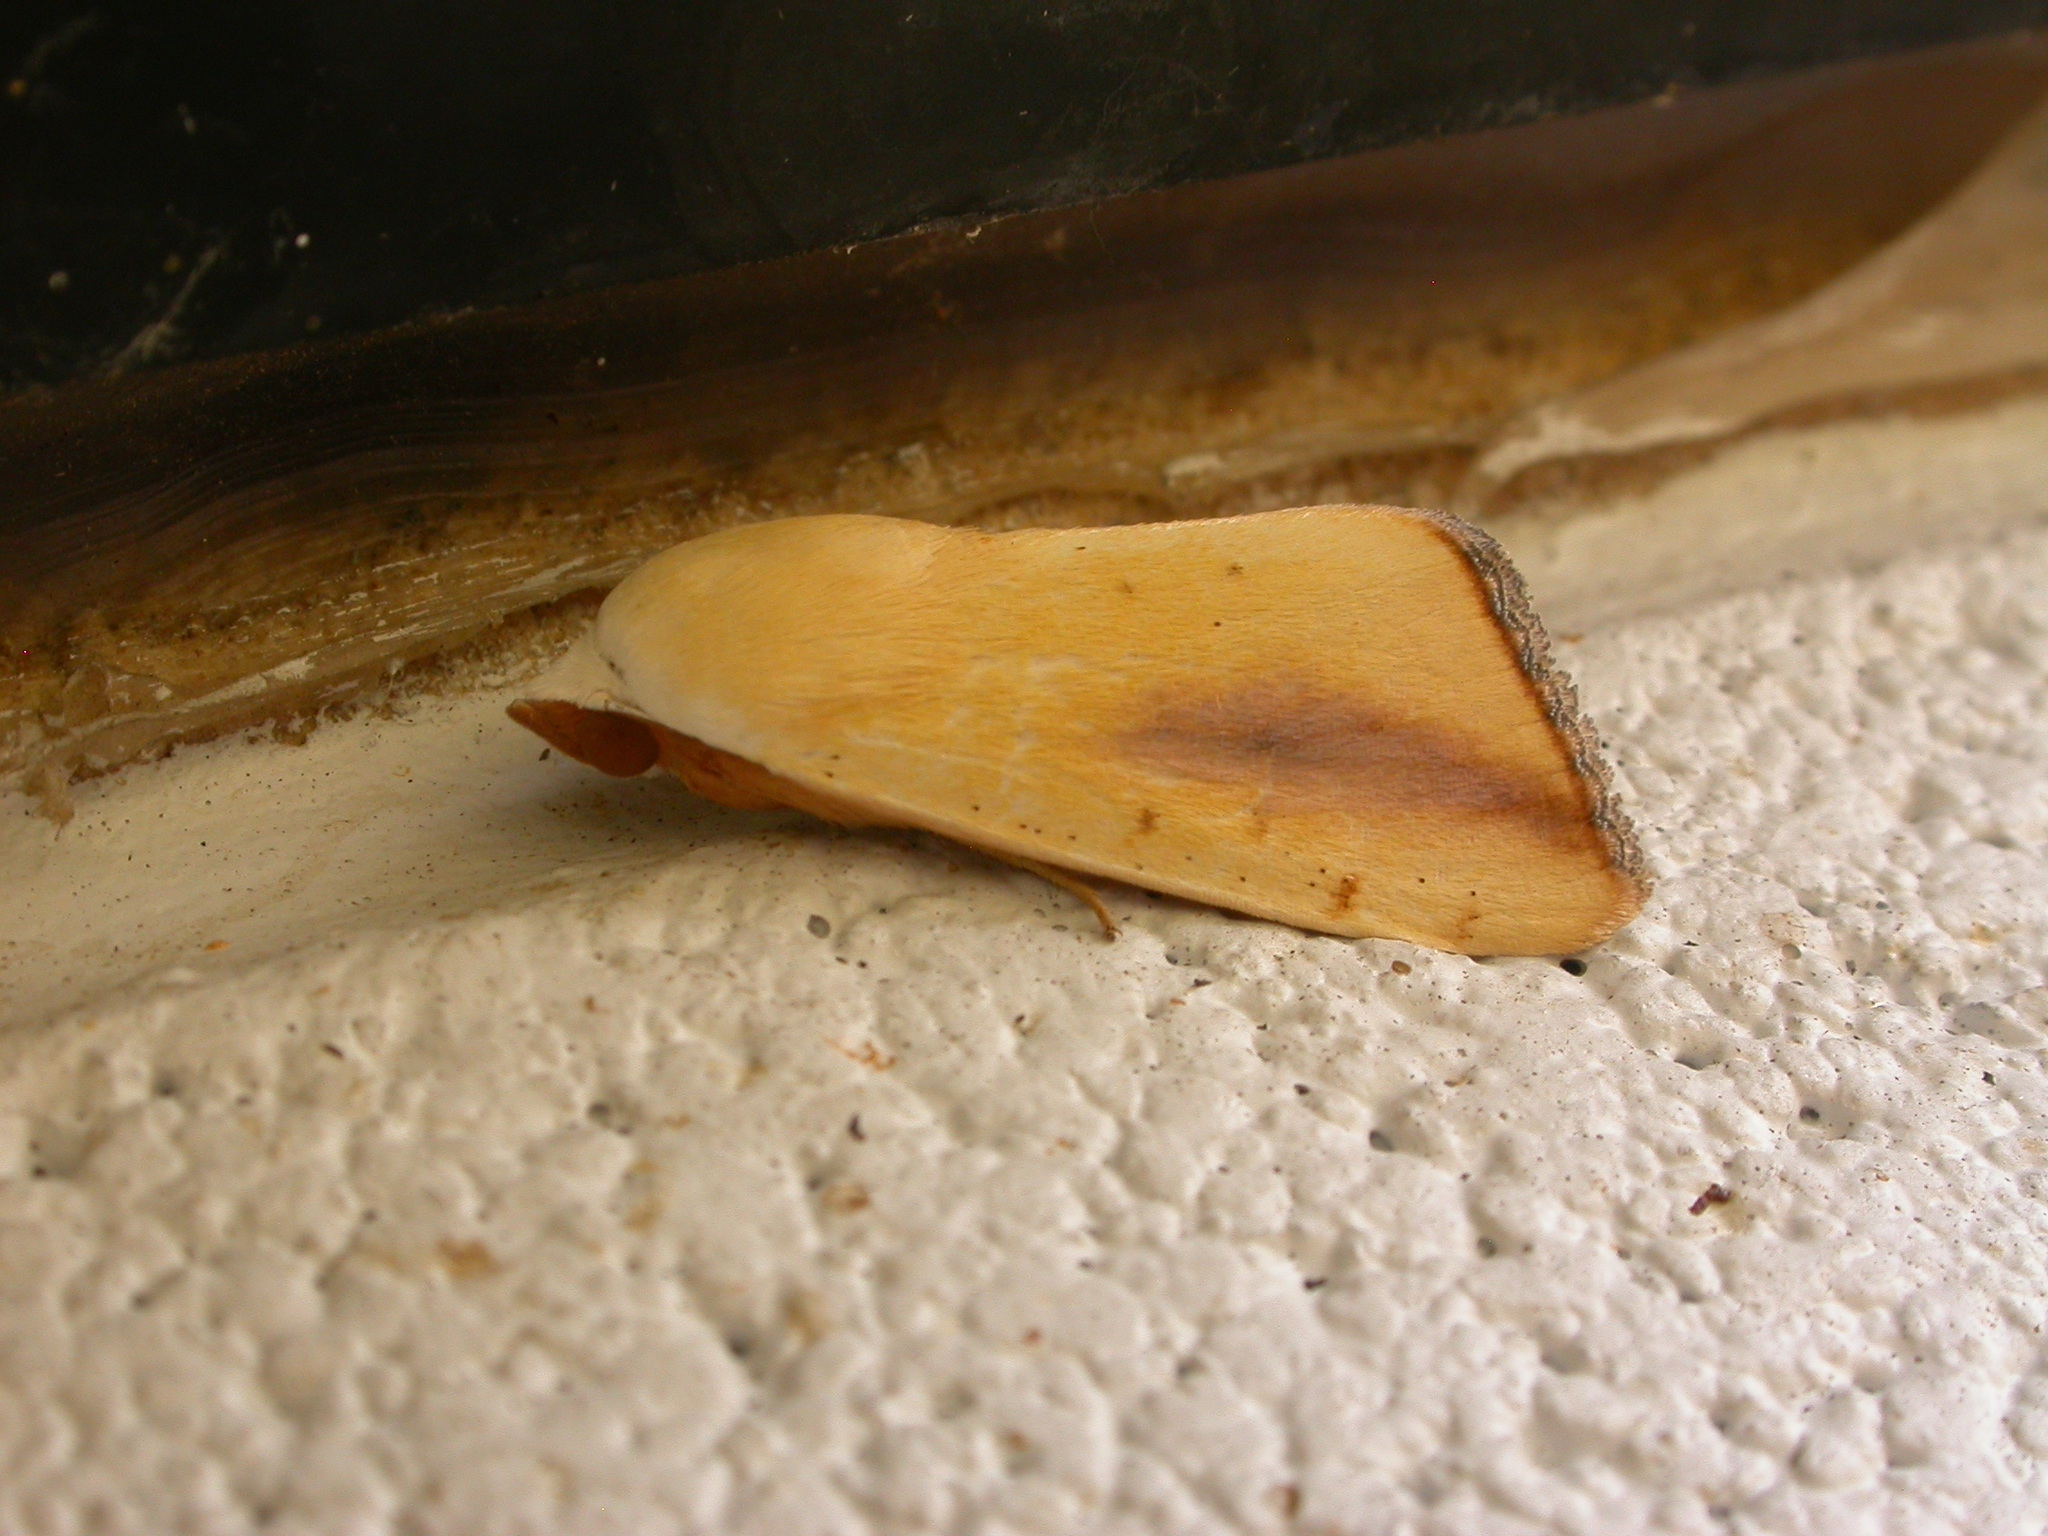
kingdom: Animalia
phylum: Arthropoda
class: Insecta
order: Lepidoptera
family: Nolidae
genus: Xanthodes
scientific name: Xanthodes congenita
